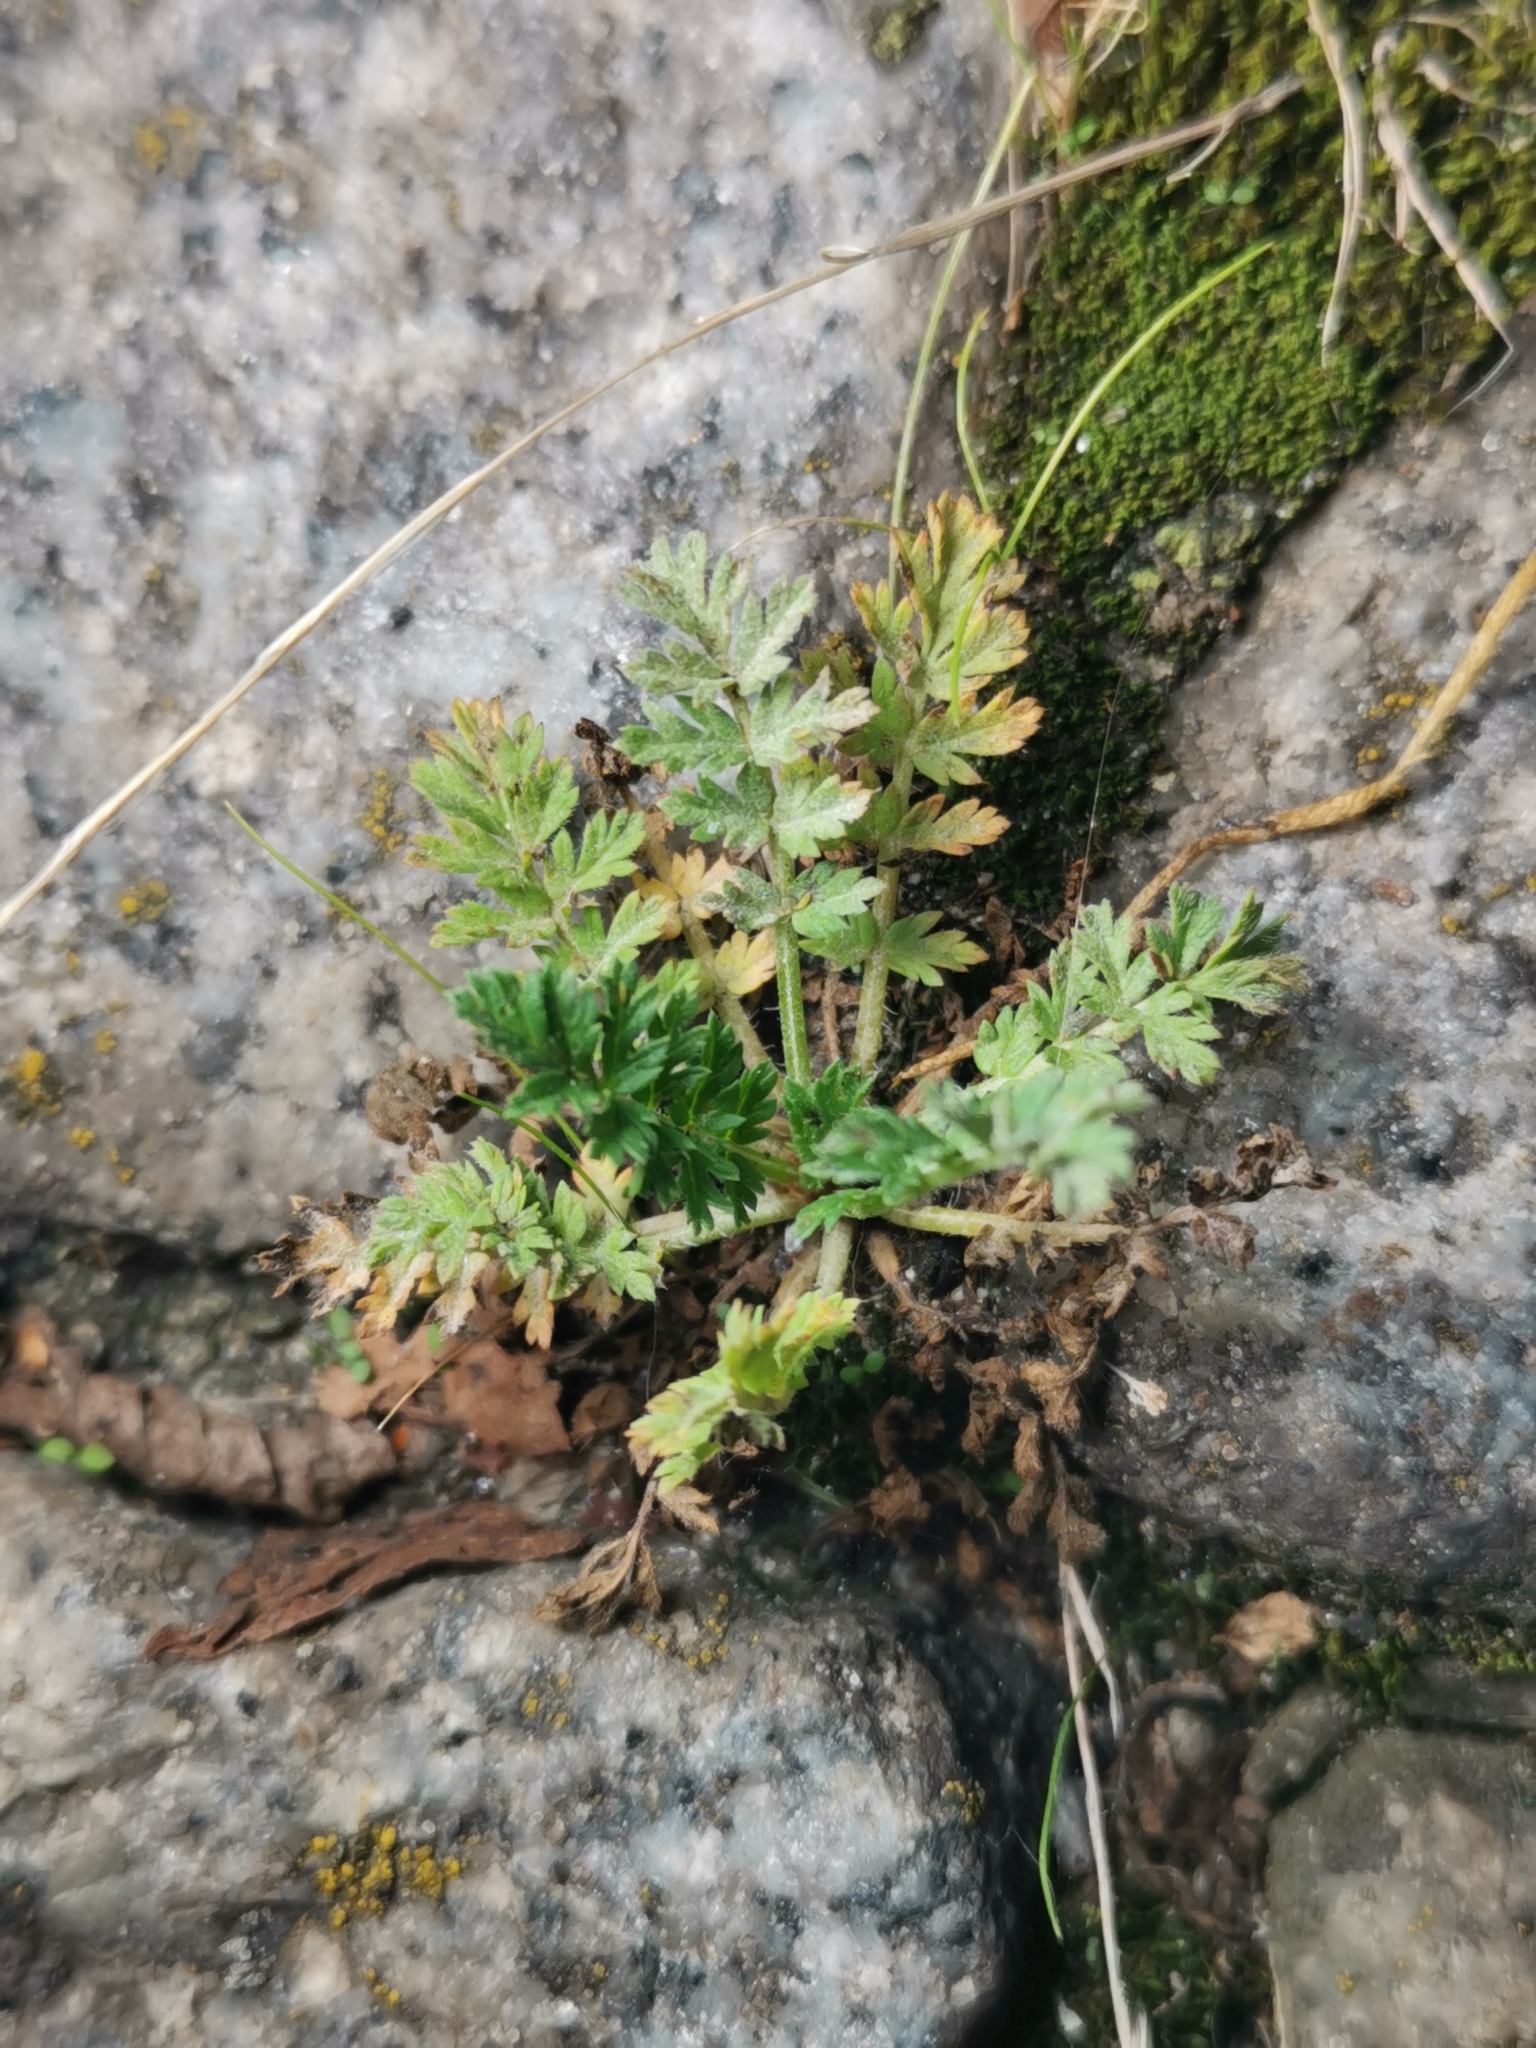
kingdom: Plantae
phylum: Tracheophyta
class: Magnoliopsida
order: Geraniales
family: Geraniaceae
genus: Erodium
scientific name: Erodium cicutarium
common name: Common stork's-bill
